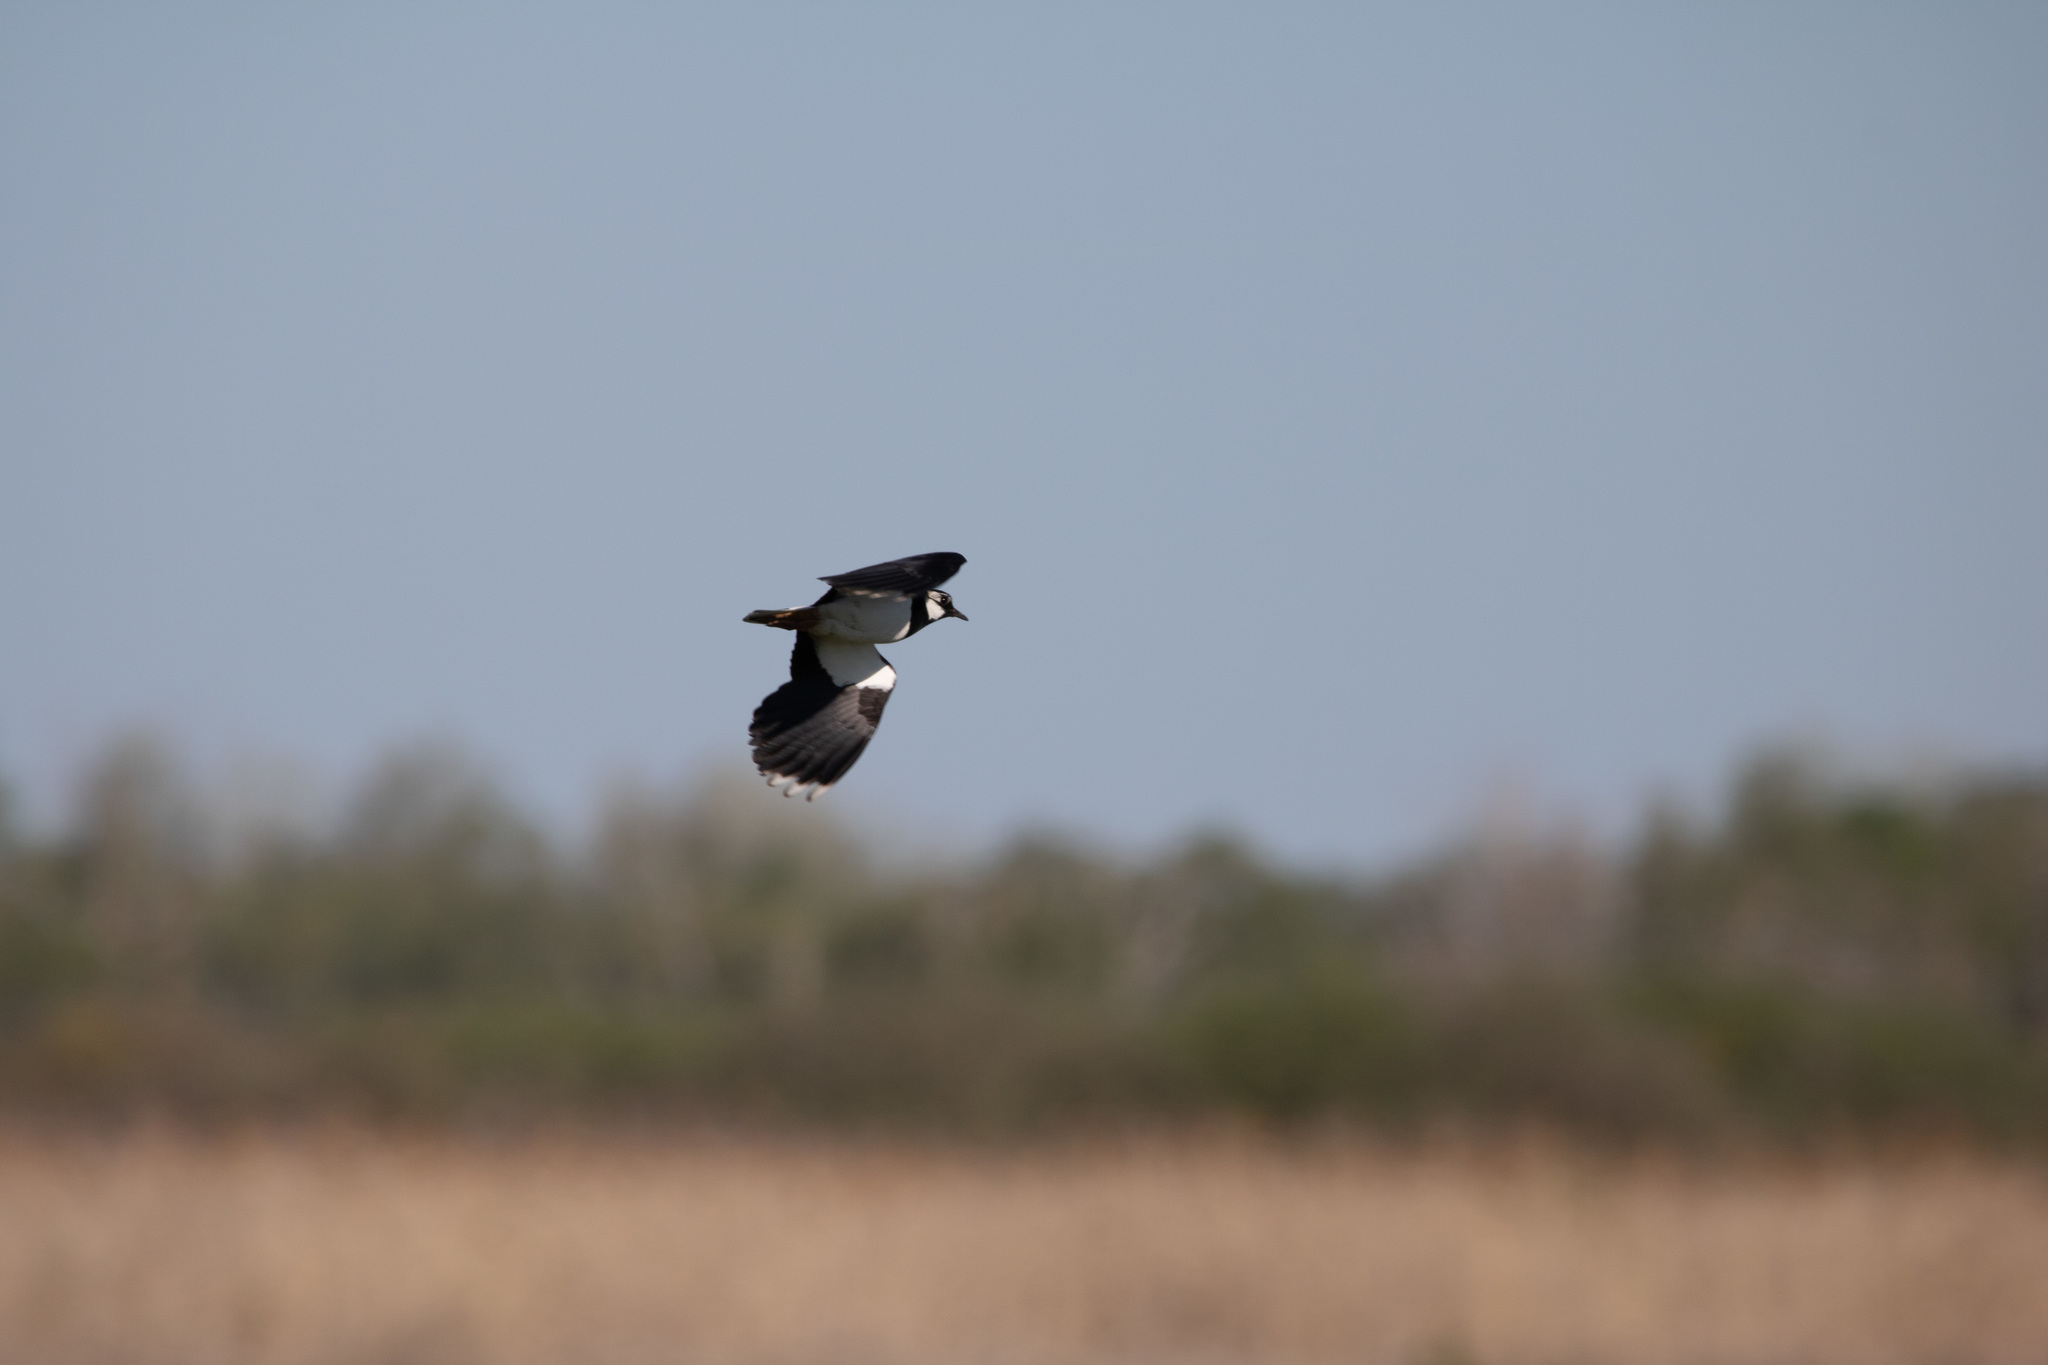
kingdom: Animalia
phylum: Chordata
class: Aves
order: Charadriiformes
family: Charadriidae
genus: Vanellus
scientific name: Vanellus vanellus
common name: Northern lapwing
